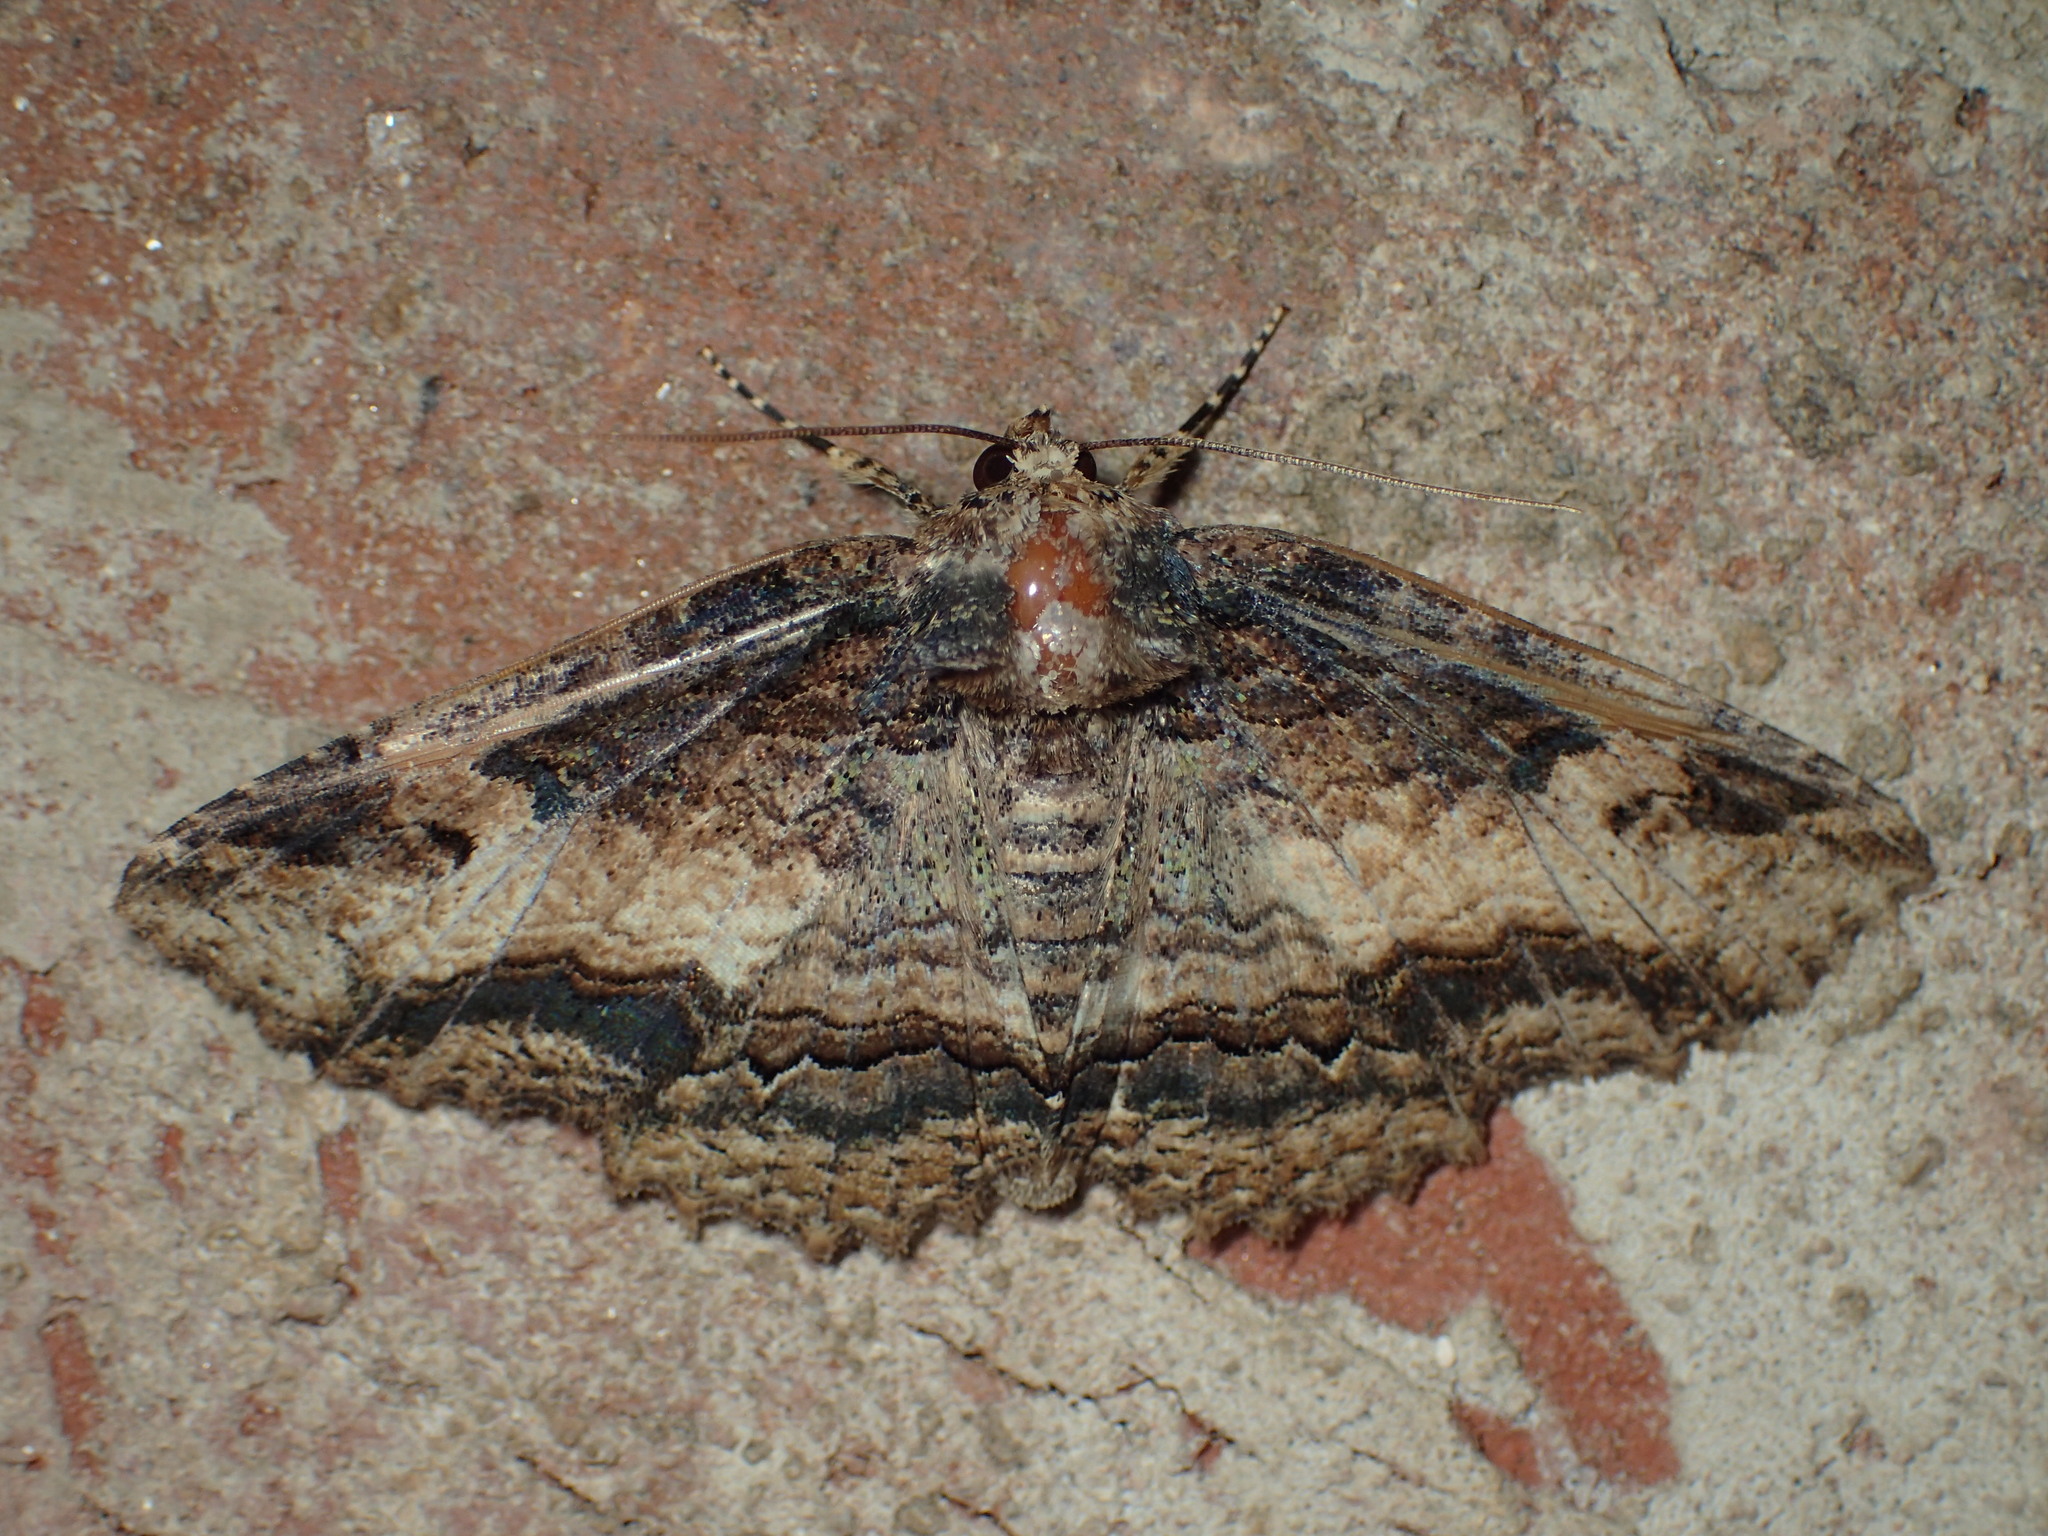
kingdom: Animalia
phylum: Arthropoda
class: Insecta
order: Lepidoptera
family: Erebidae
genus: Zale
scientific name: Zale minerea
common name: Colorful zale moth
